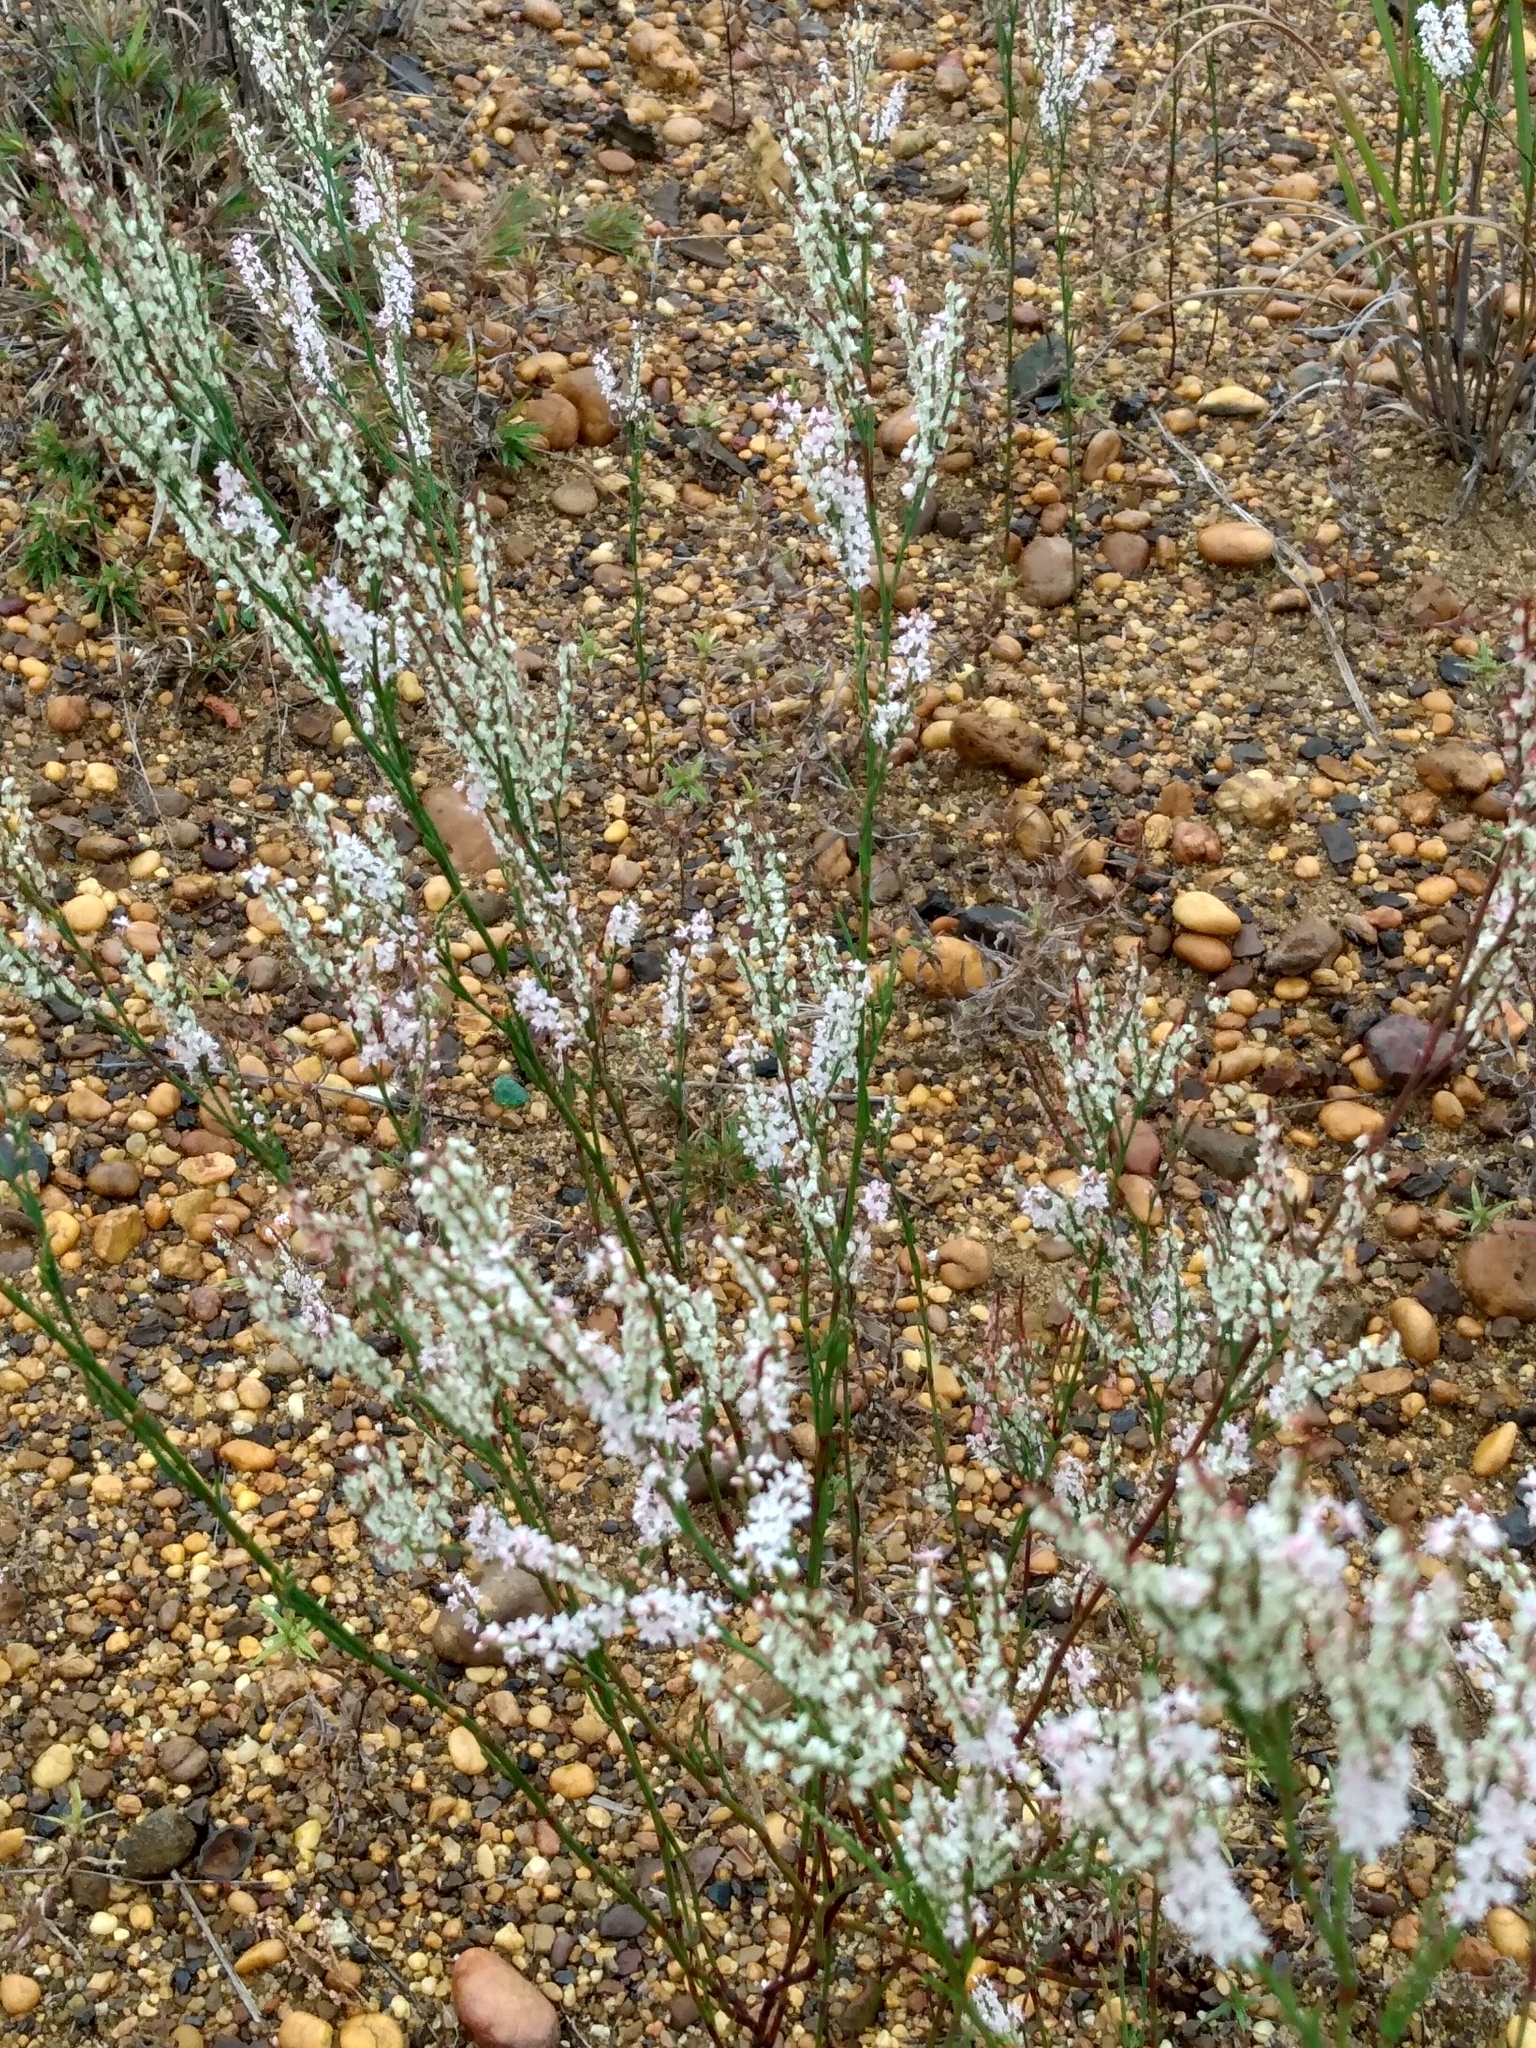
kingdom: Plantae
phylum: Tracheophyta
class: Magnoliopsida
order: Caryophyllales
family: Polygonaceae
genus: Polygonella
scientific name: Polygonella articulata
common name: Coastal jointweed
